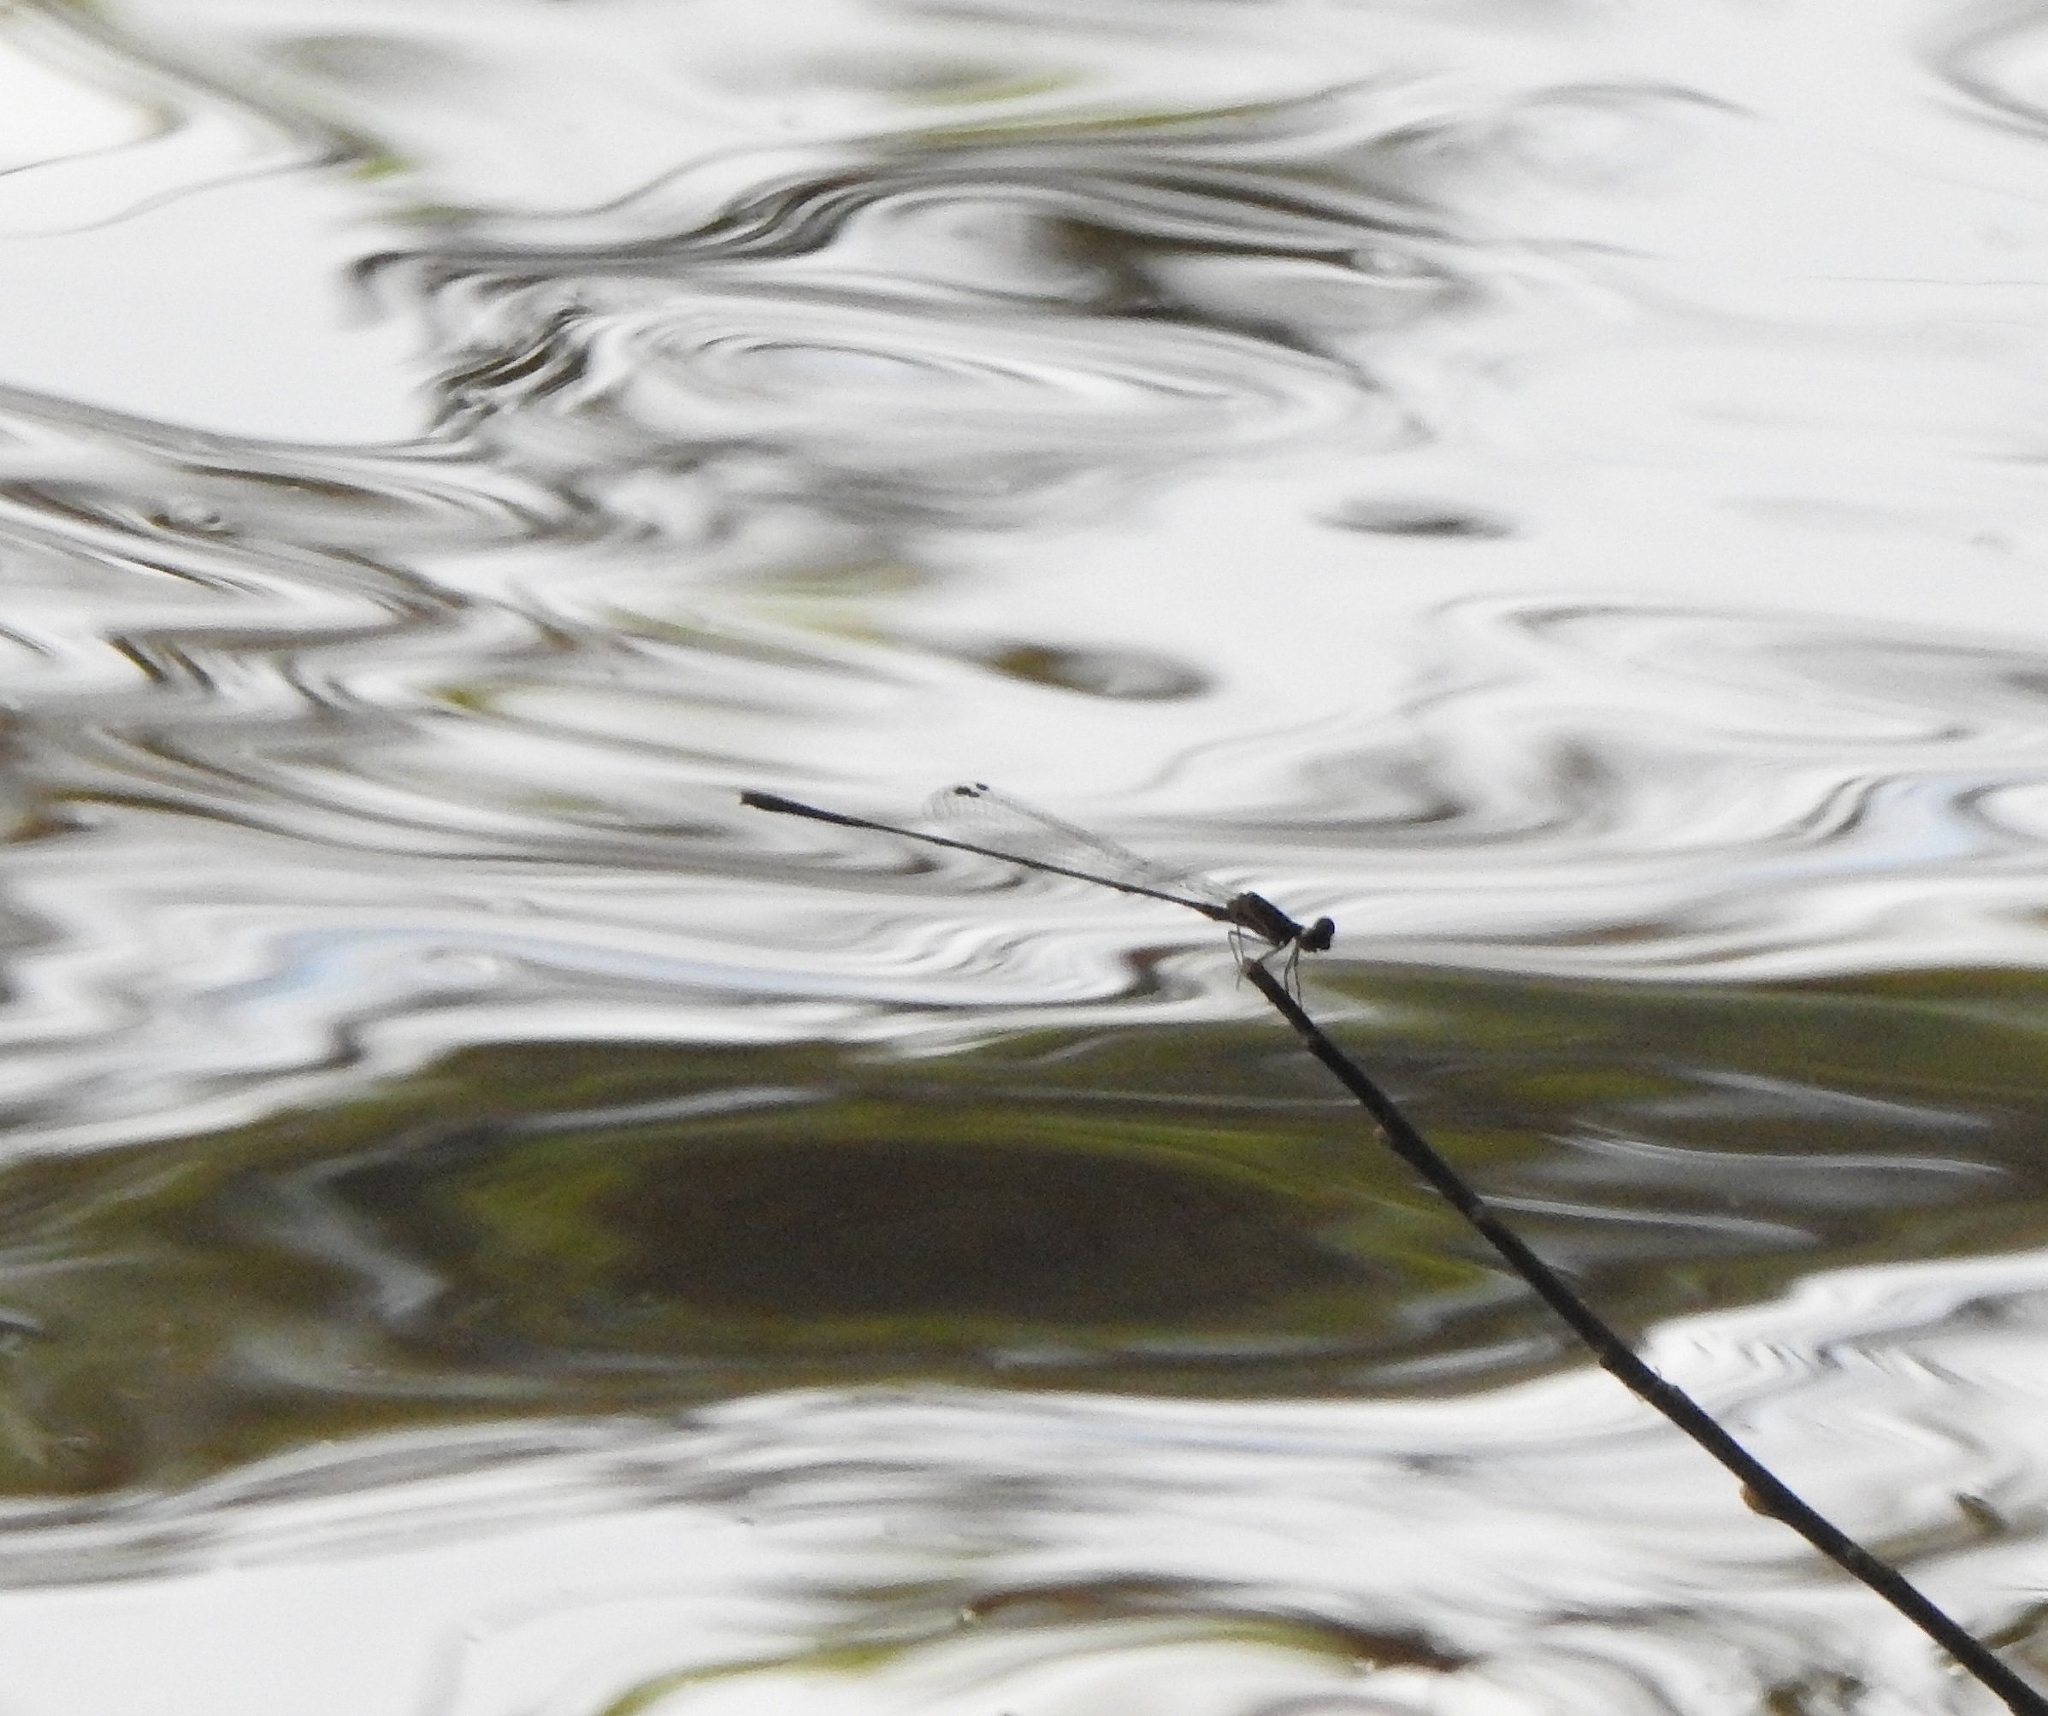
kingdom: Animalia
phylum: Arthropoda
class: Insecta
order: Odonata
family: Platycnemididae
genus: Prodasineura
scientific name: Prodasineura verticalis
